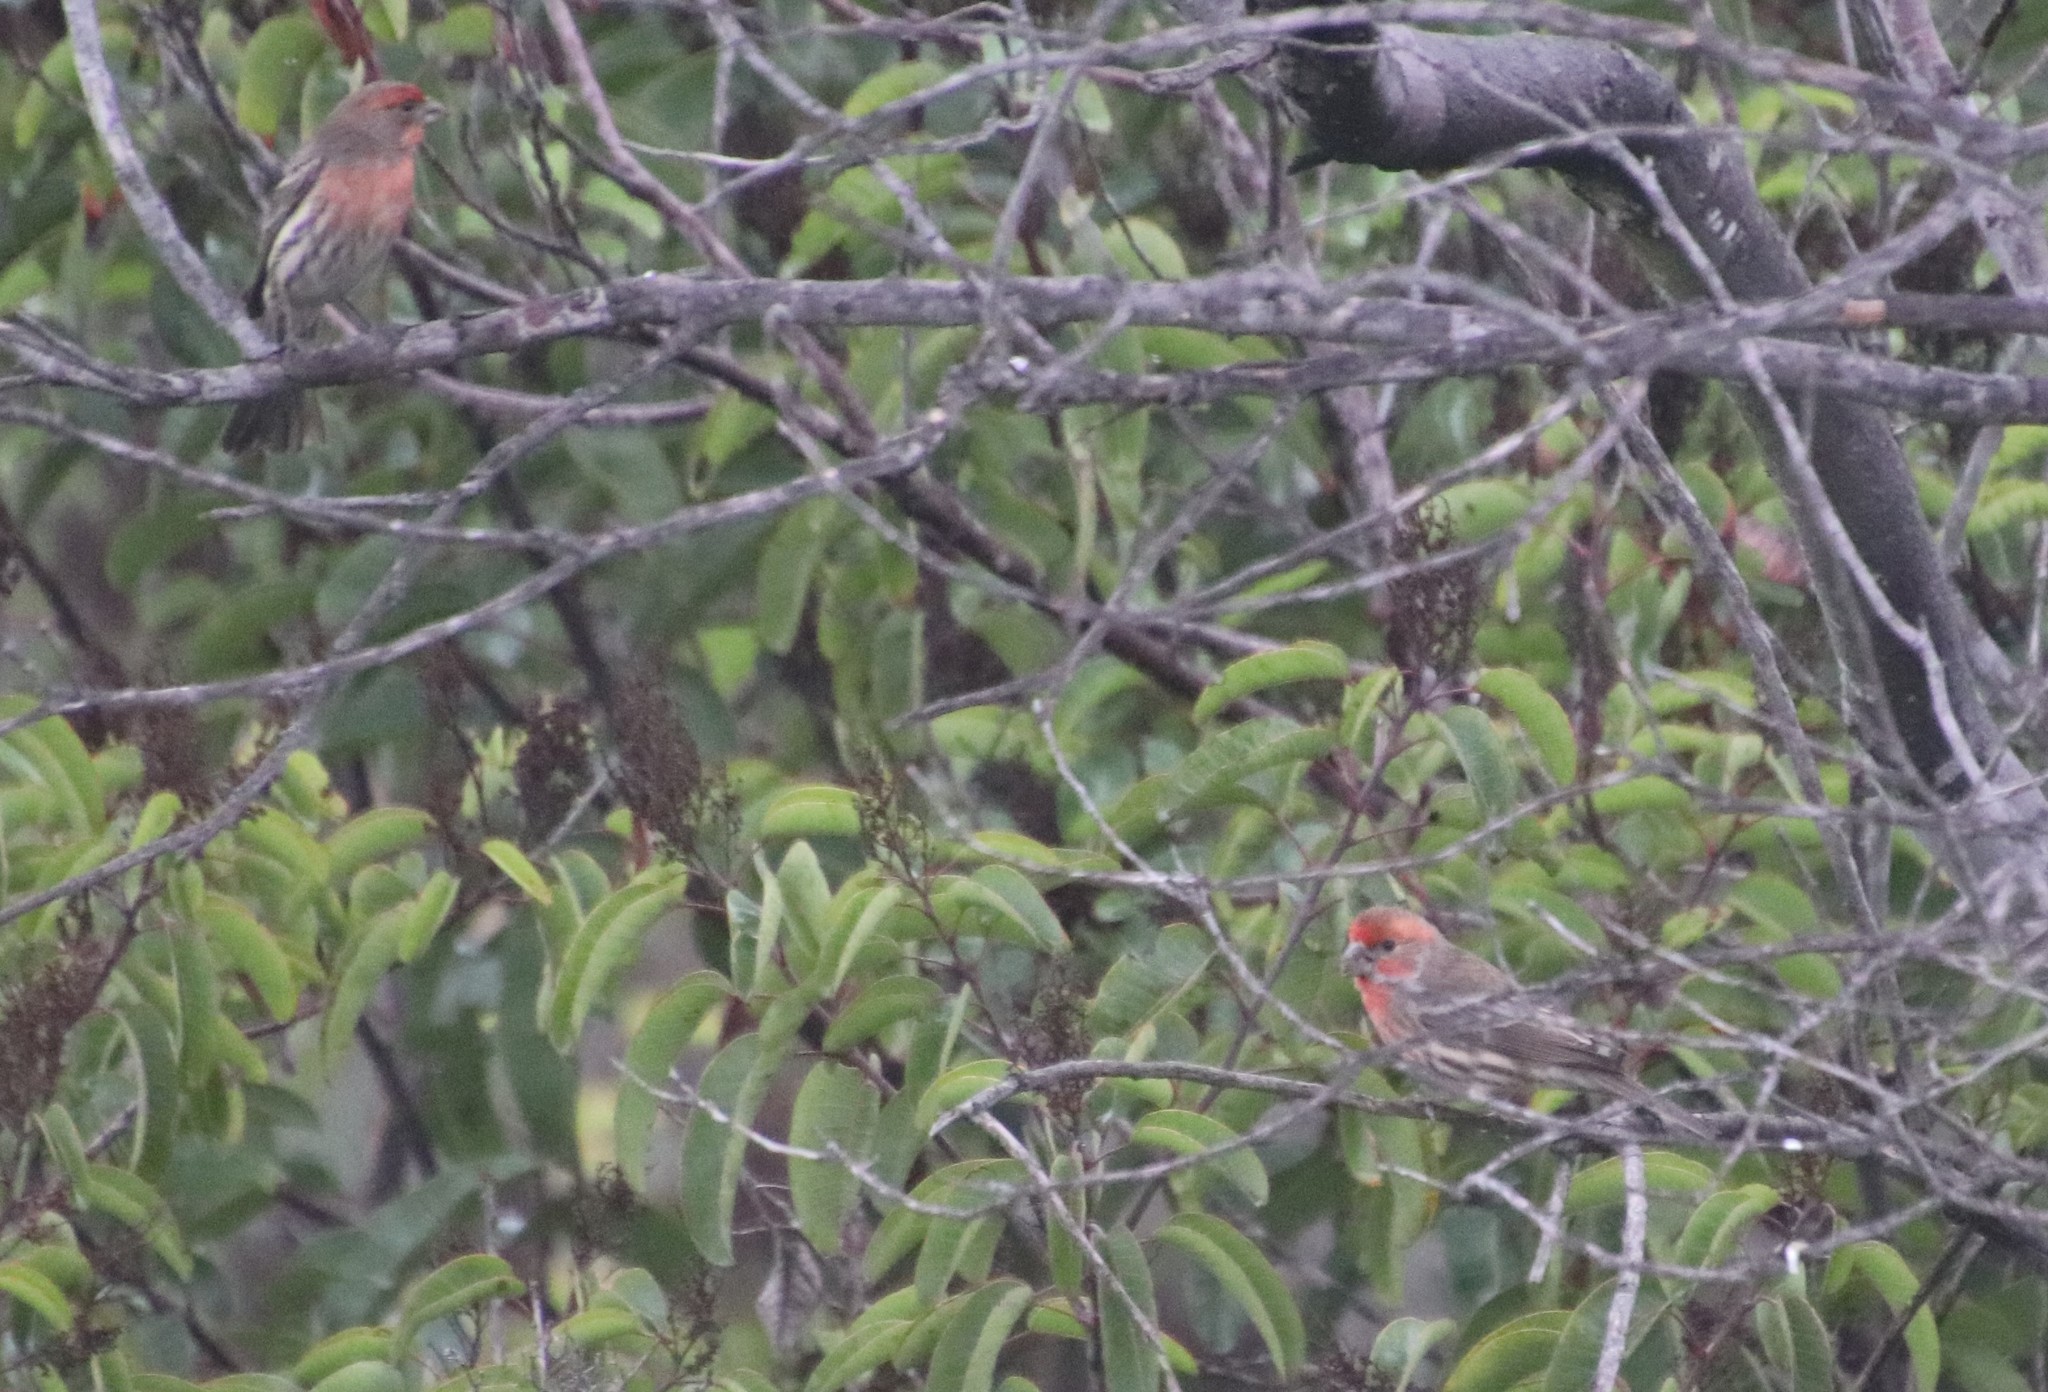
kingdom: Animalia
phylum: Chordata
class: Aves
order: Passeriformes
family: Fringillidae
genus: Haemorhous
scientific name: Haemorhous mexicanus
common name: House finch
